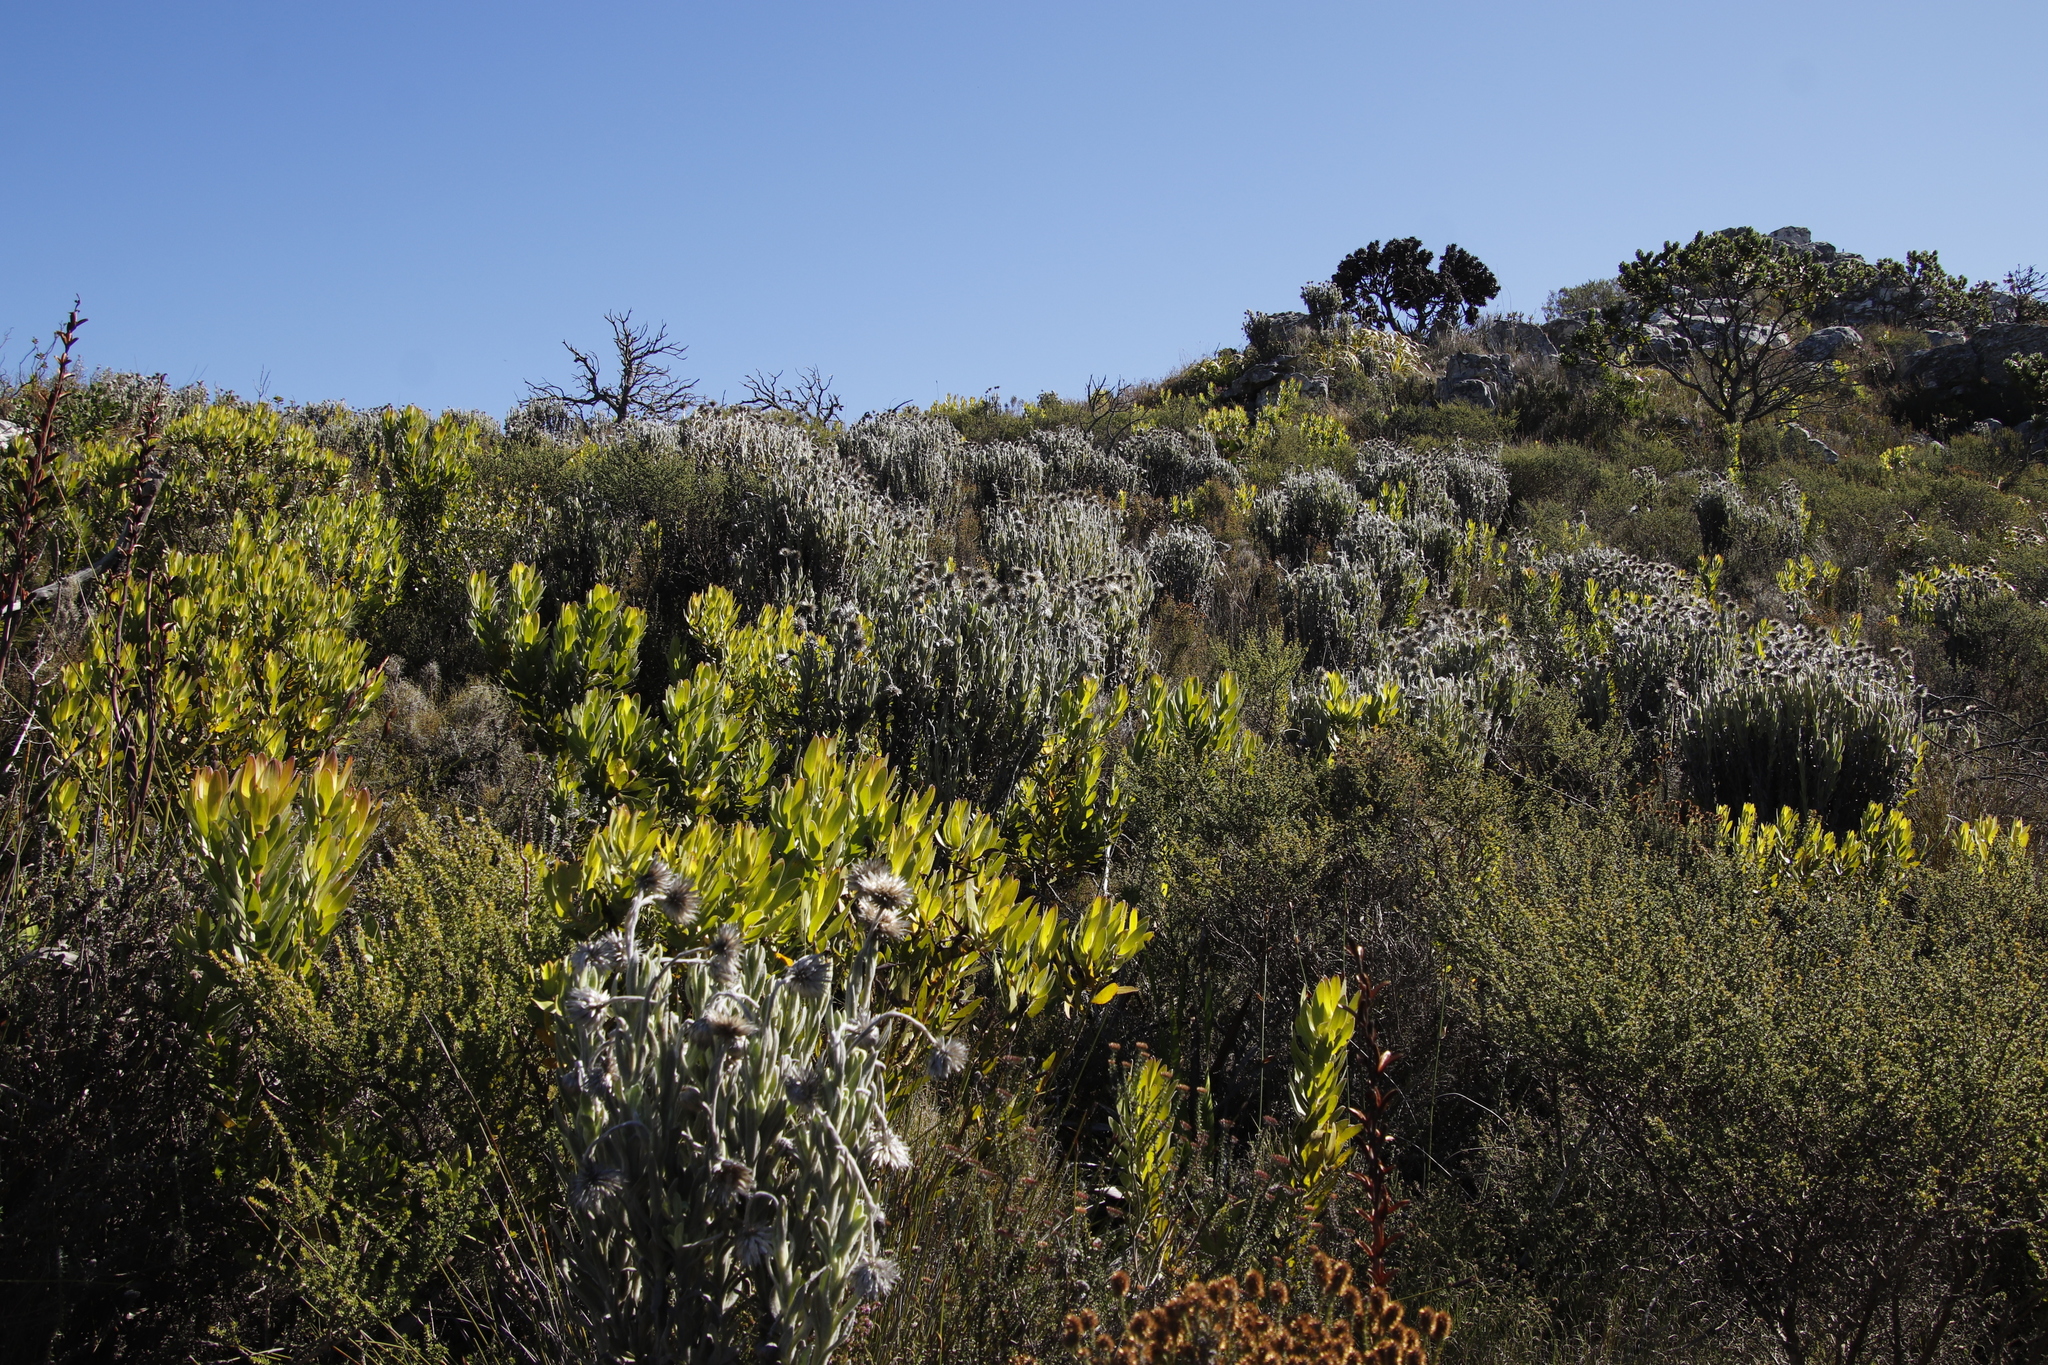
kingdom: Plantae
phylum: Tracheophyta
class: Magnoliopsida
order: Proteales
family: Proteaceae
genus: Leucadendron
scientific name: Leucadendron laureolum
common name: Golden sunshinebush
